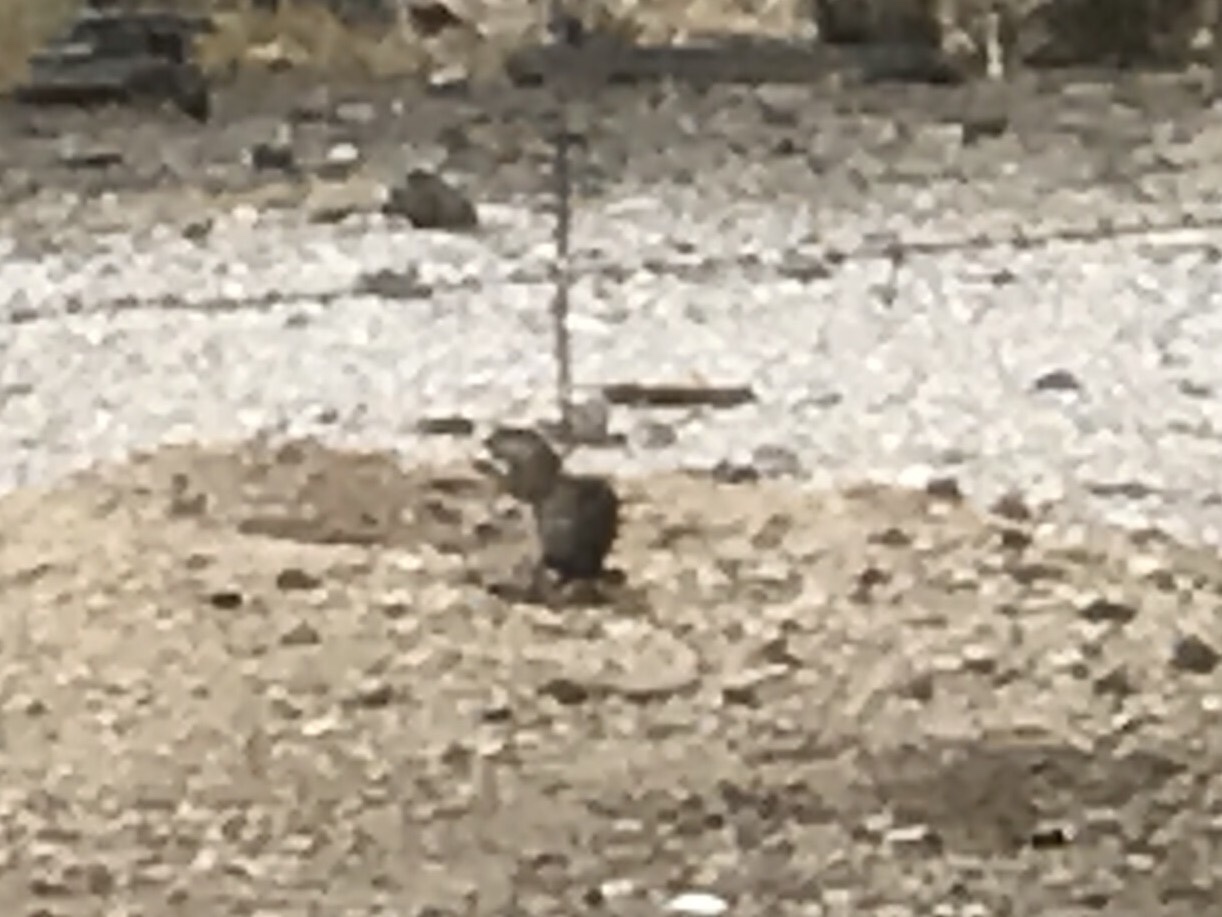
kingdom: Animalia
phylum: Chordata
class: Mammalia
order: Rodentia
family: Sciuridae
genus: Xerospermophilus
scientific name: Xerospermophilus tereticaudus
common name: Round-tailed ground squirrel
